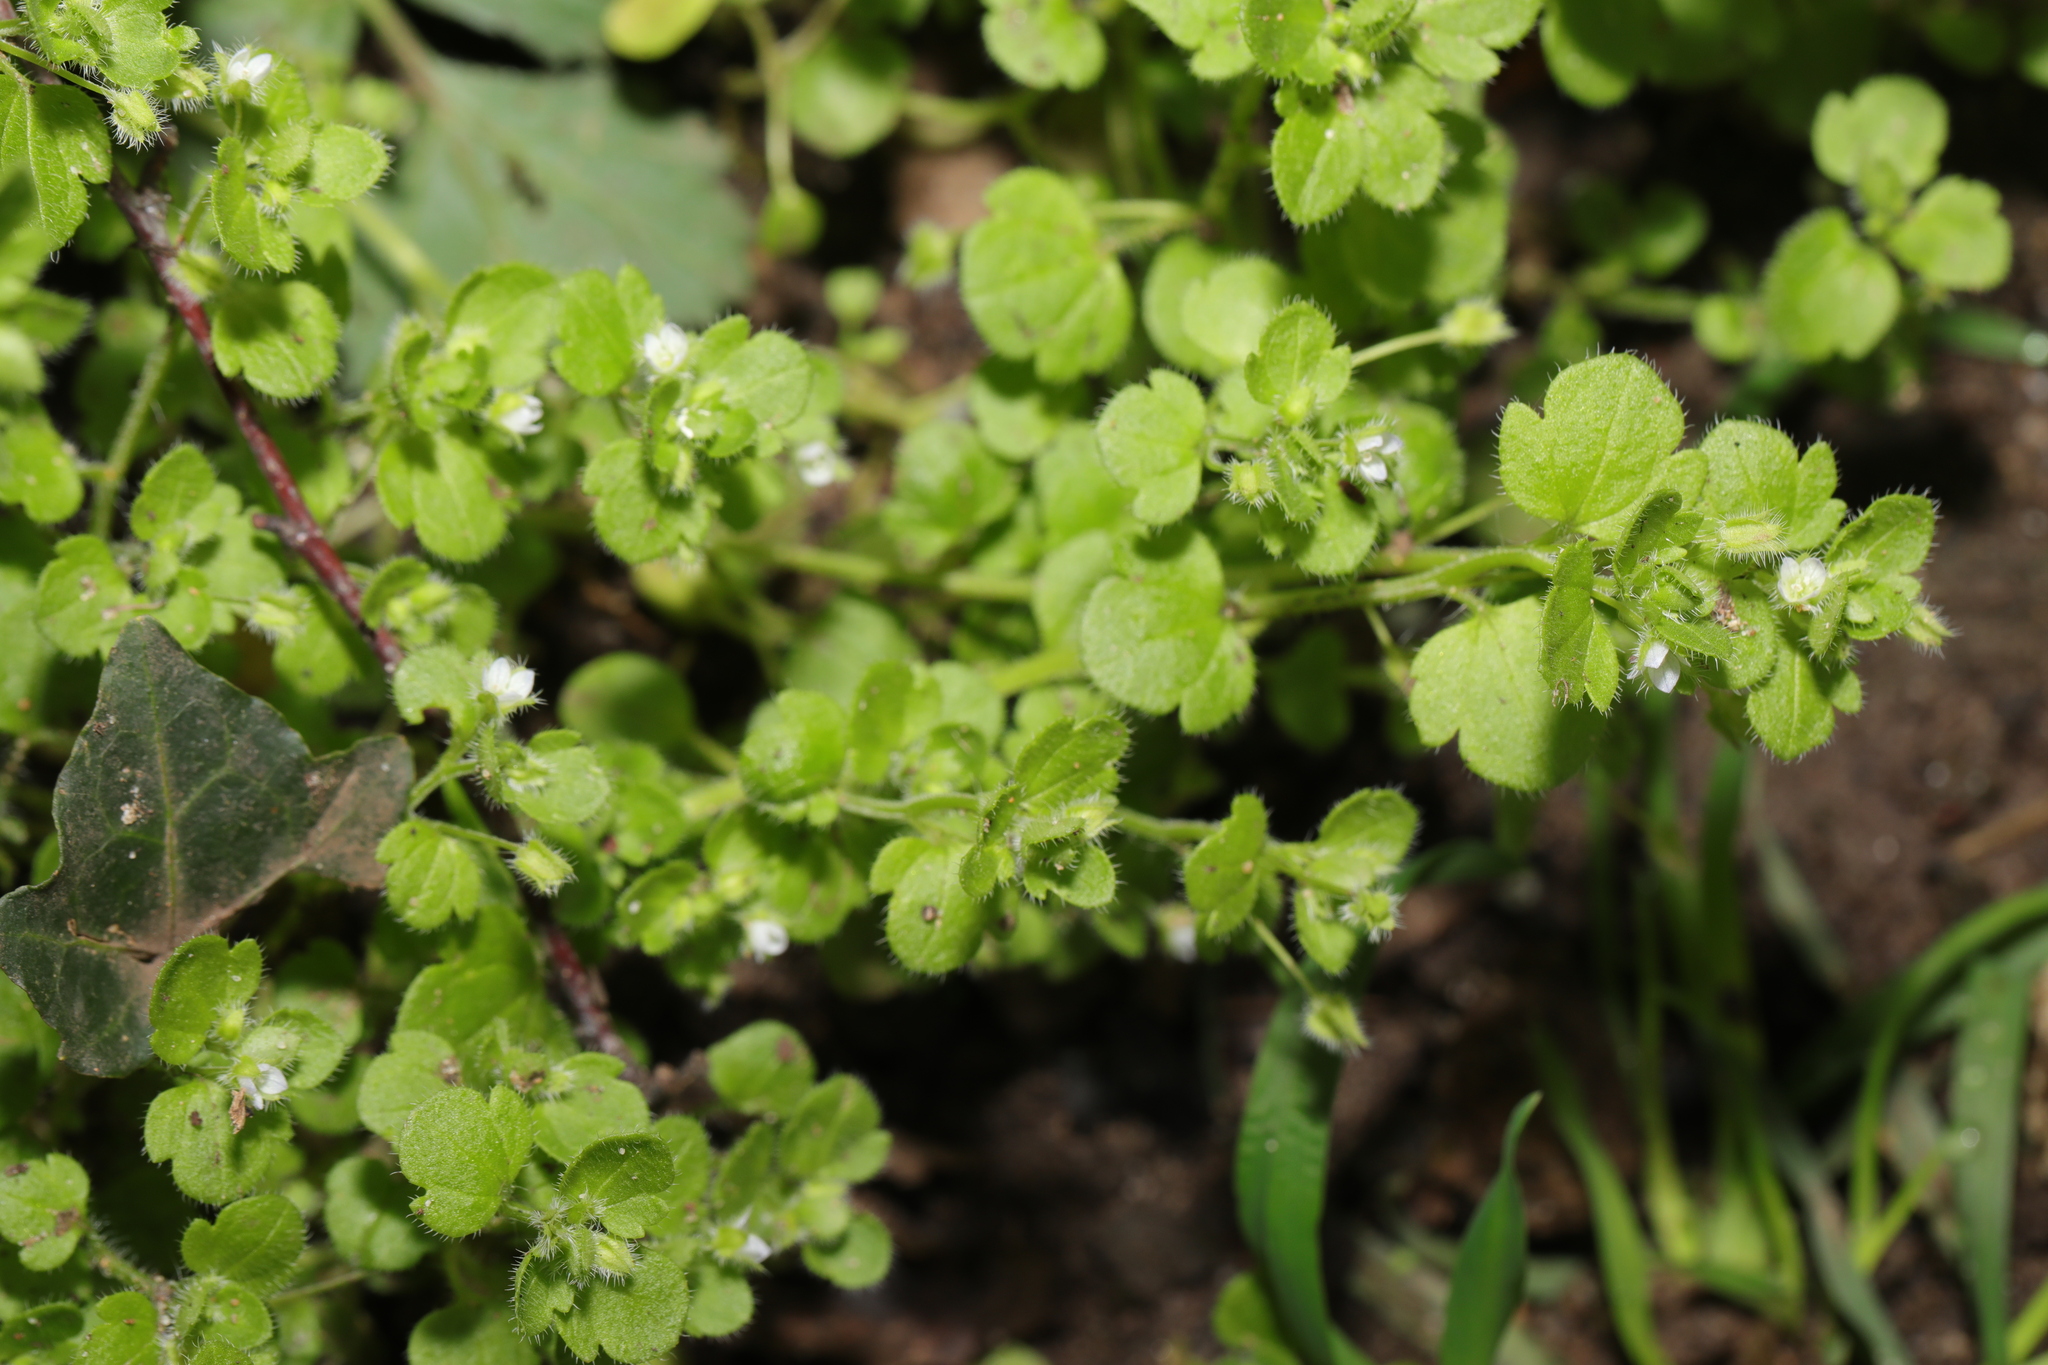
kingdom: Plantae
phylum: Tracheophyta
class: Magnoliopsida
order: Lamiales
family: Plantaginaceae
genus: Veronica
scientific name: Veronica sublobata
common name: False ivy-leaved speedwell
